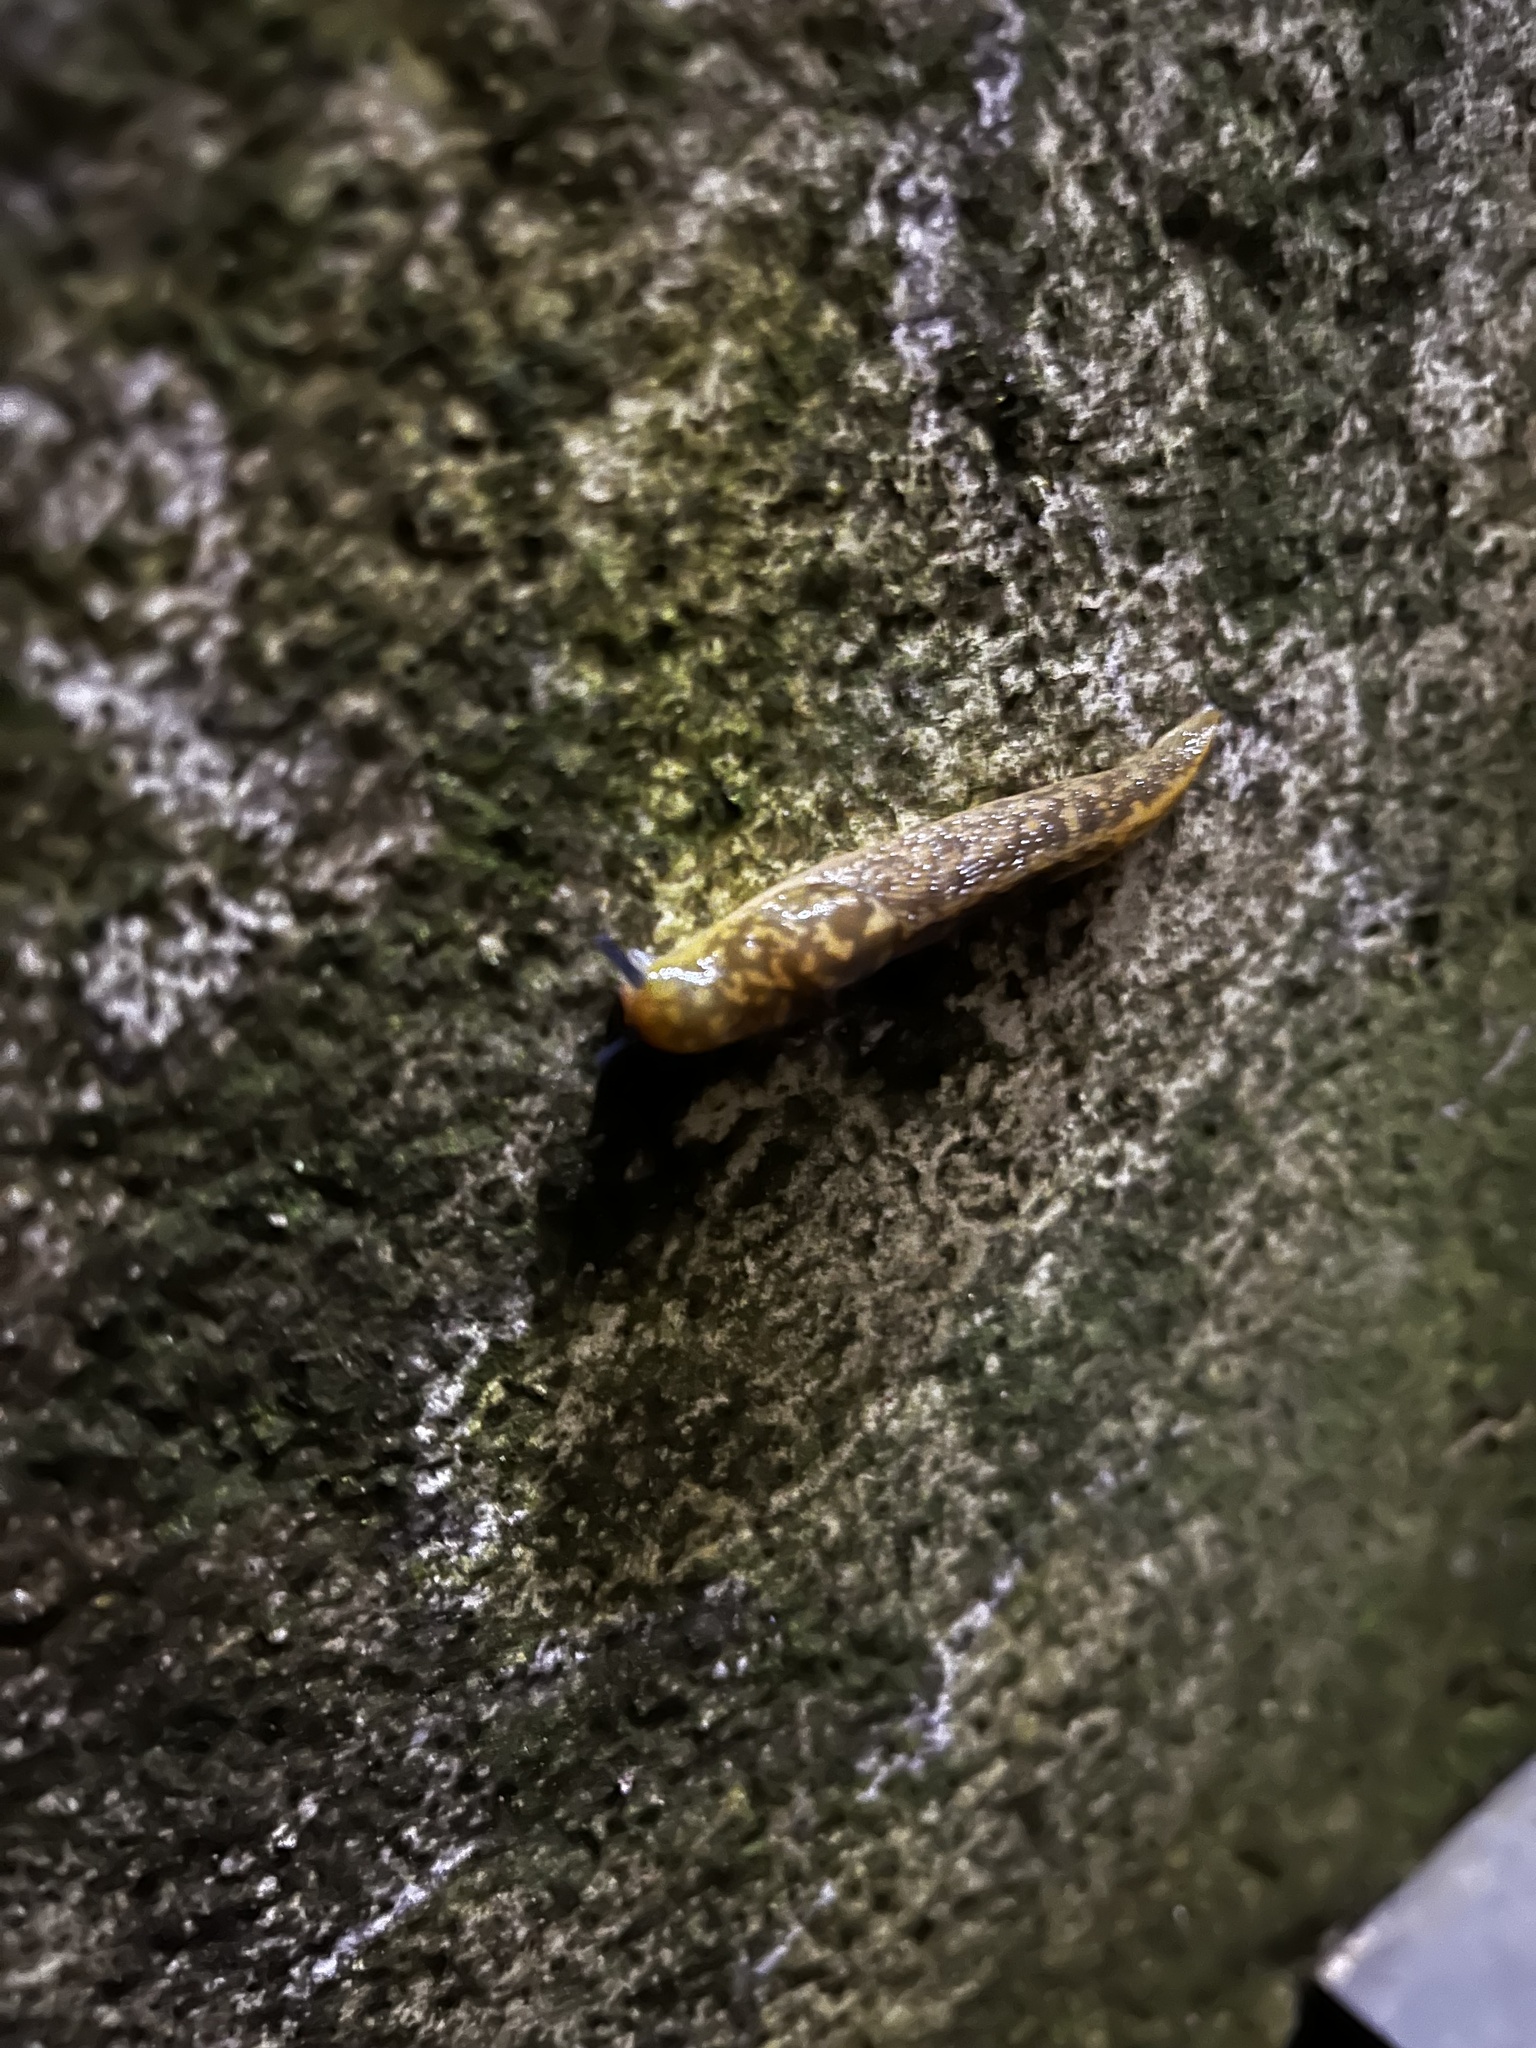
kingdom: Animalia
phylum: Mollusca
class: Gastropoda
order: Stylommatophora
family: Limacidae
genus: Limacus
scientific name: Limacus flavus
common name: Yellow gardenslug
